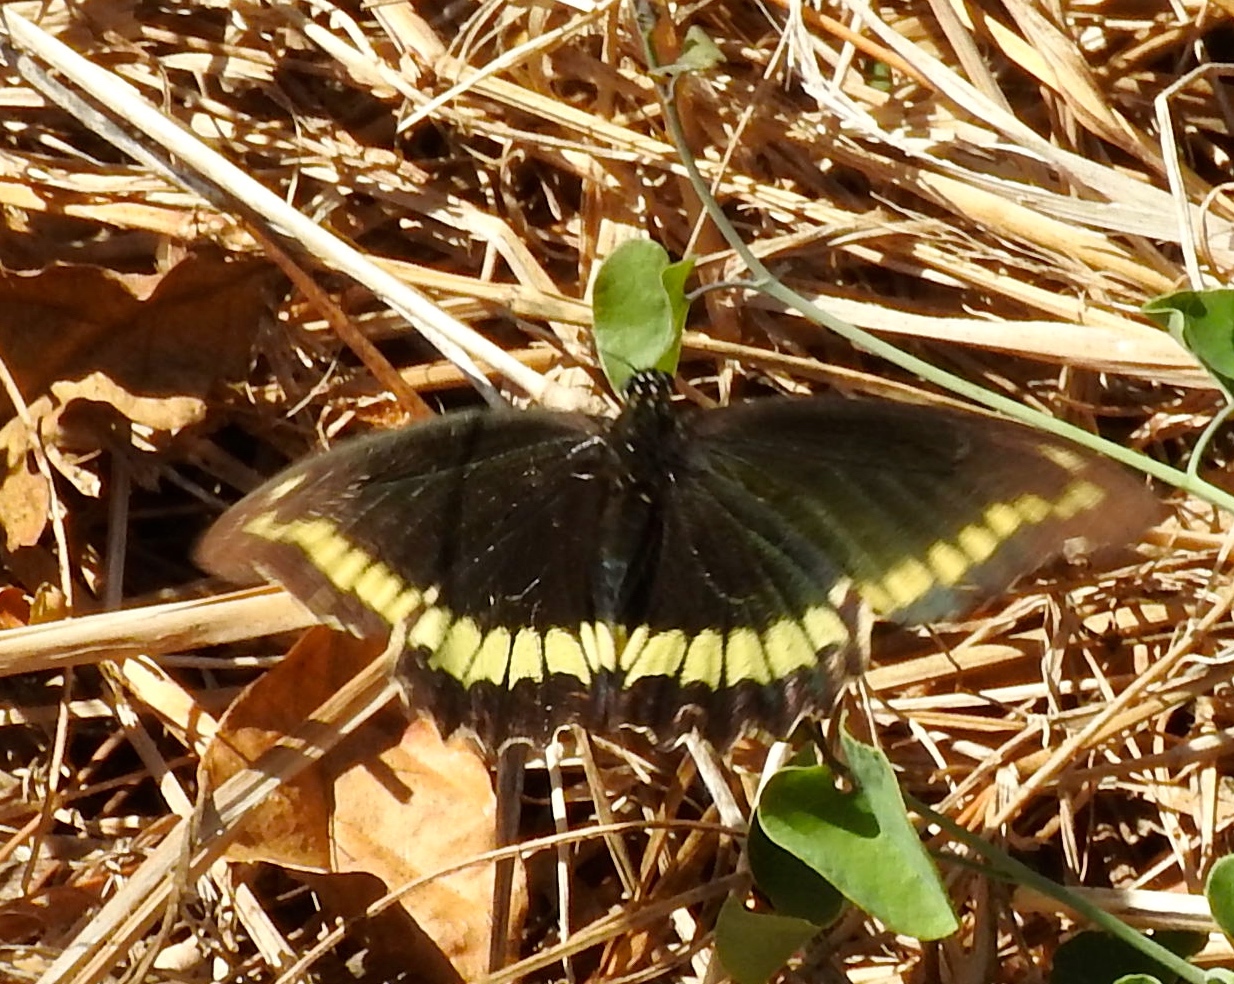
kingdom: Animalia
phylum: Arthropoda
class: Insecta
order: Lepidoptera
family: Papilionidae
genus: Battus
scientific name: Battus polydamas
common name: Polydamas swallowtail
